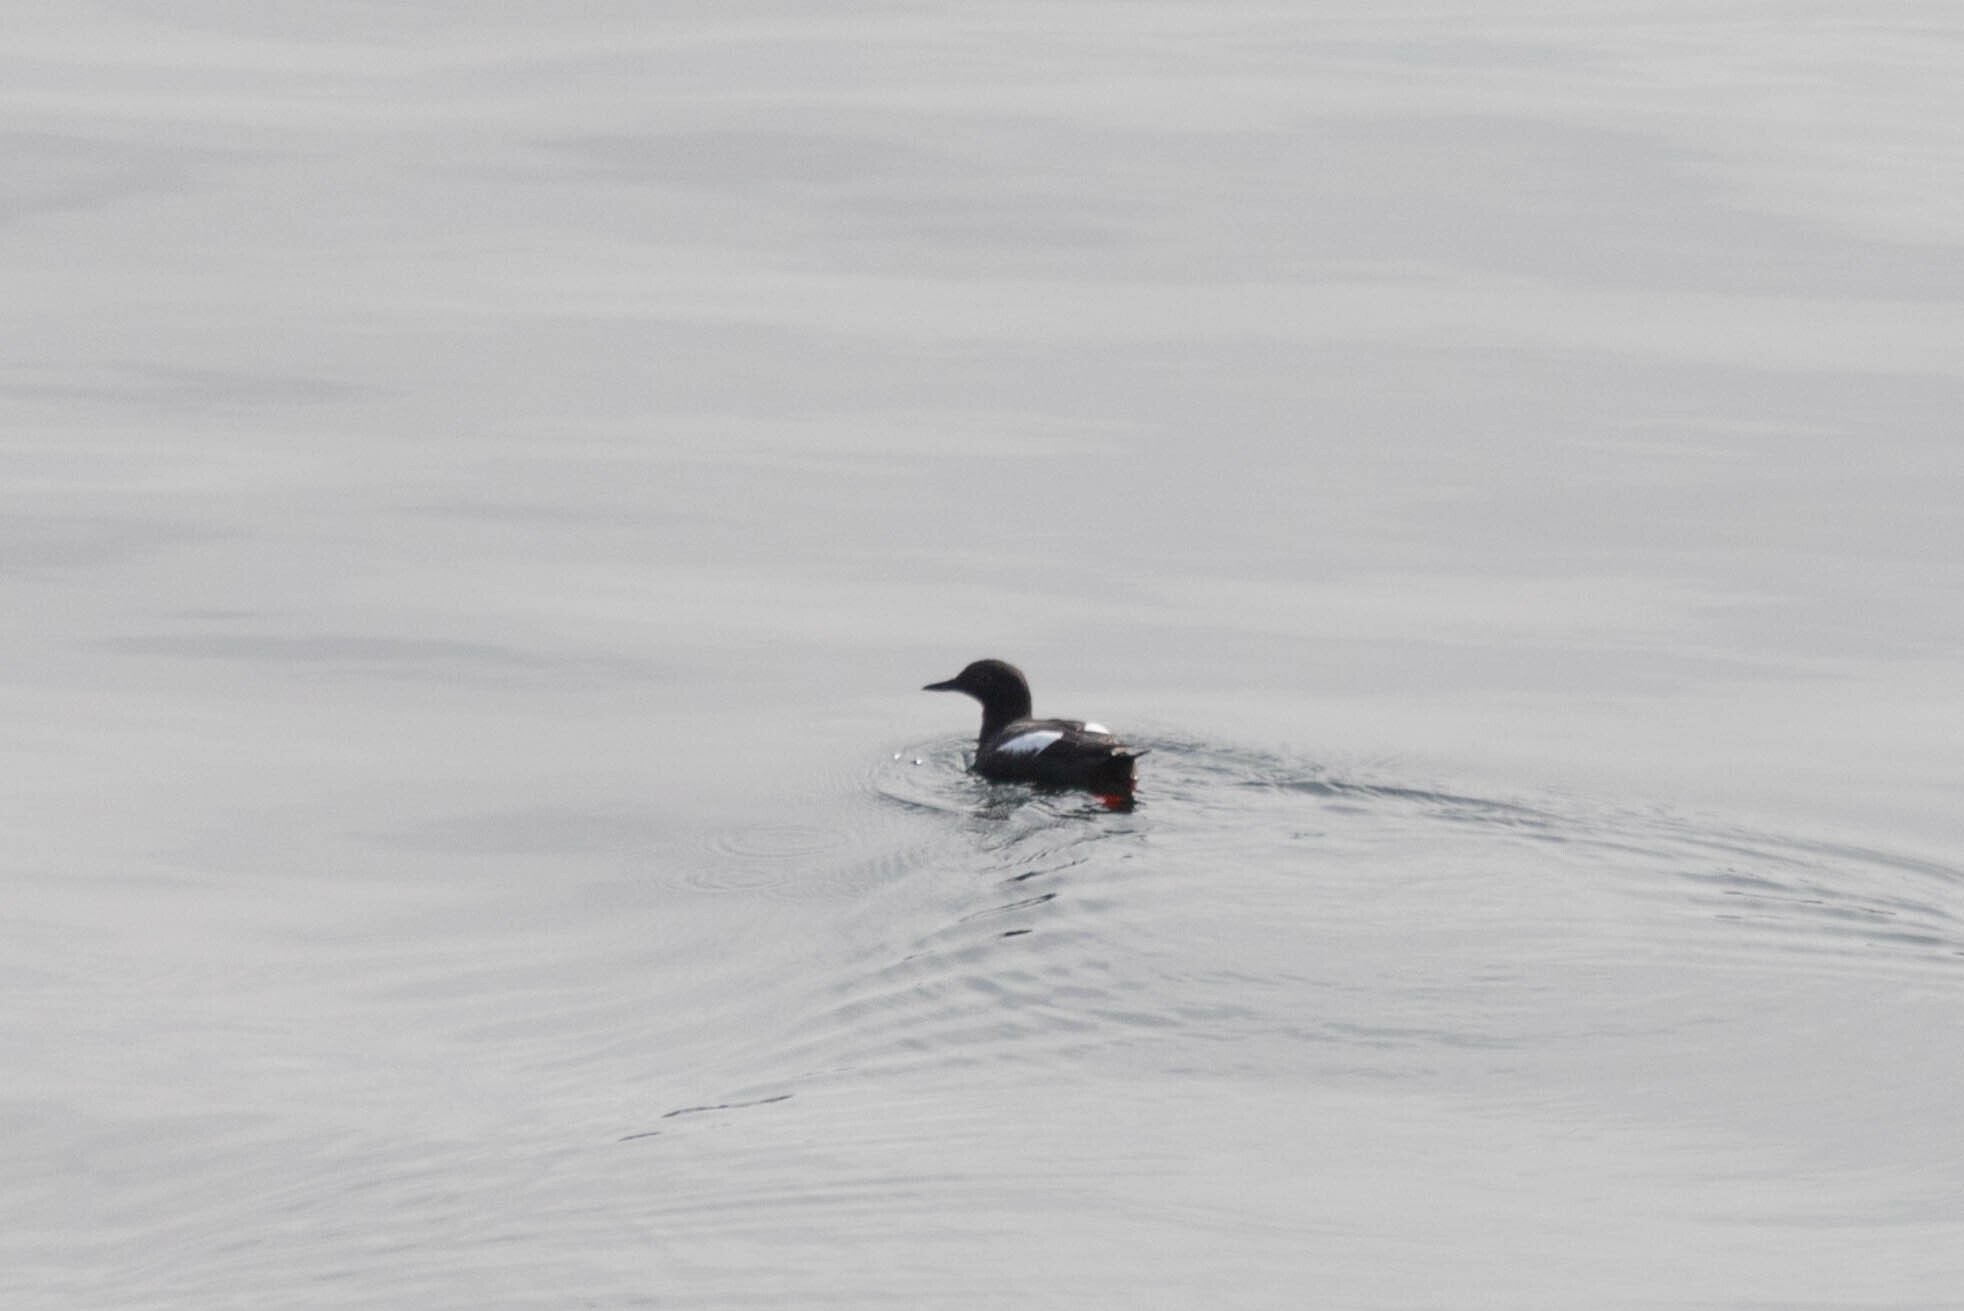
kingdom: Animalia
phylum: Chordata
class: Aves
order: Charadriiformes
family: Alcidae
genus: Cepphus
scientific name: Cepphus columba
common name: Pigeon guillemot
